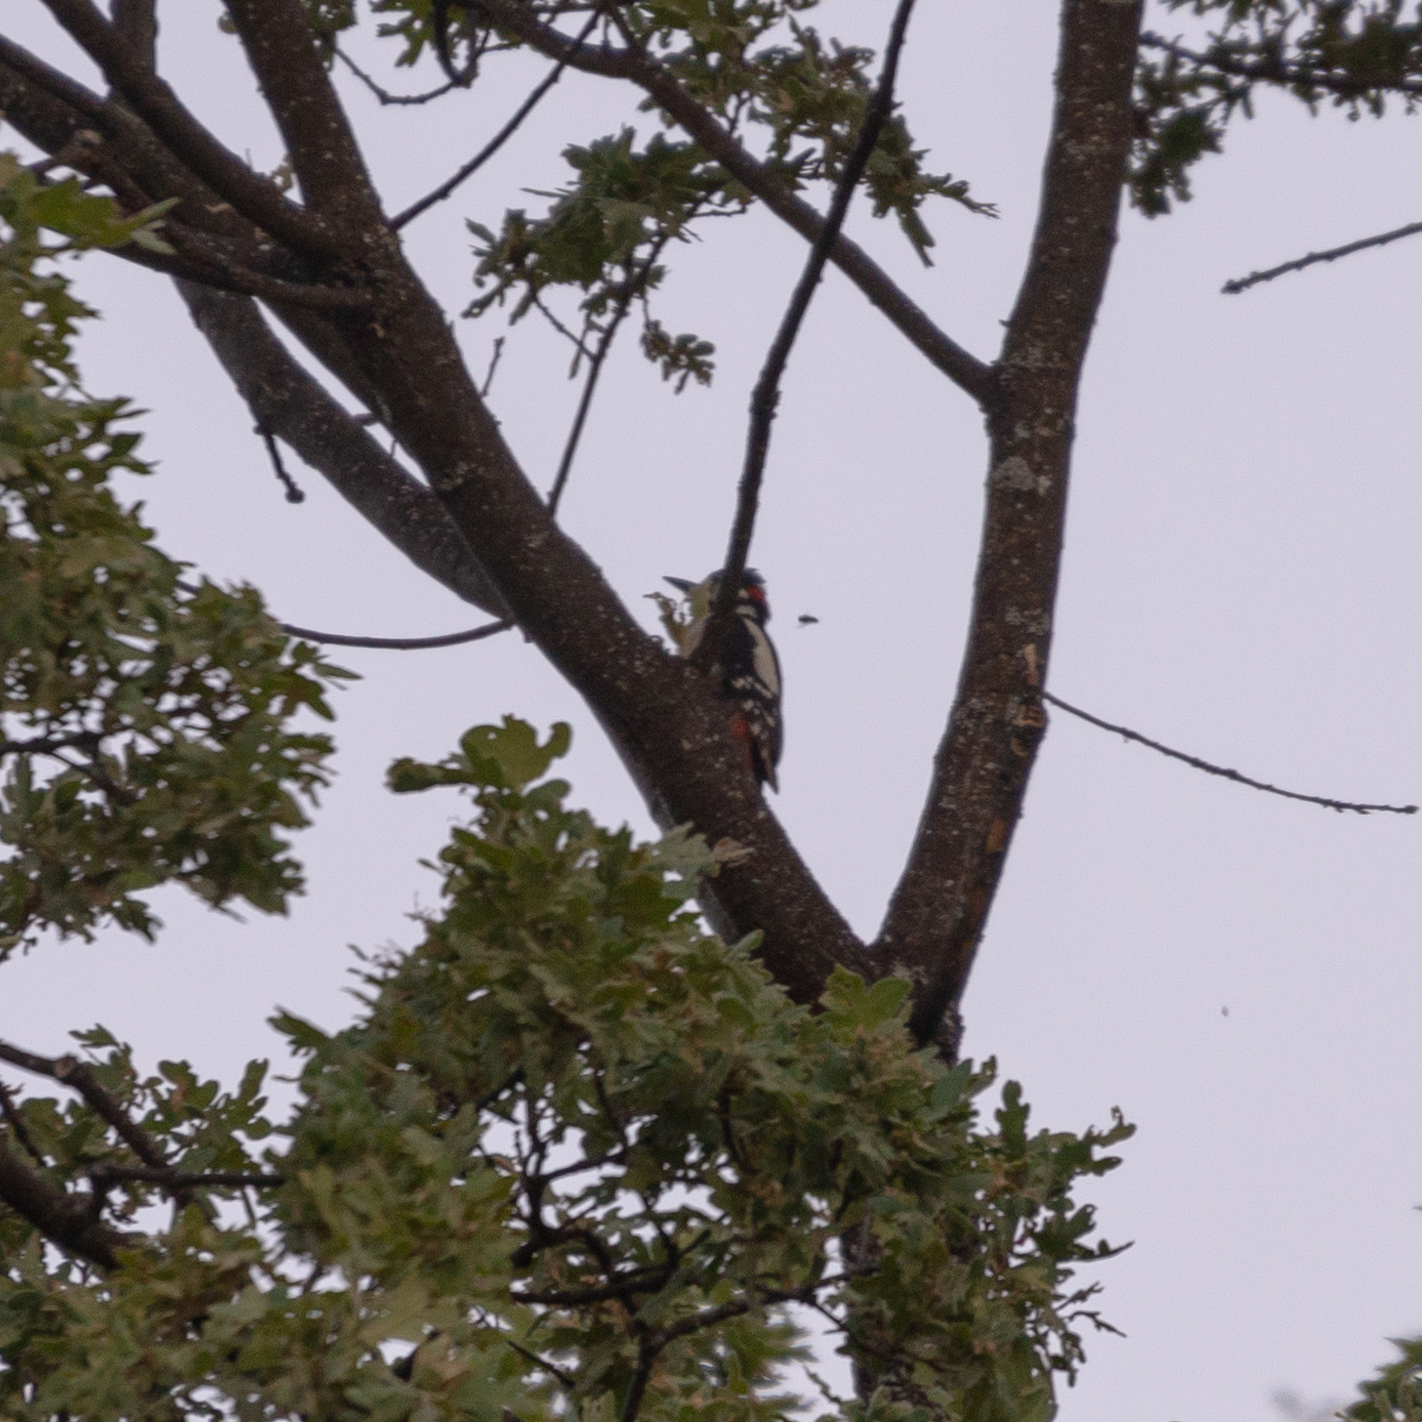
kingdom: Animalia
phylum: Chordata
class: Aves
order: Piciformes
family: Picidae
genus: Dendrocopos
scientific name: Dendrocopos major
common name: Great spotted woodpecker
